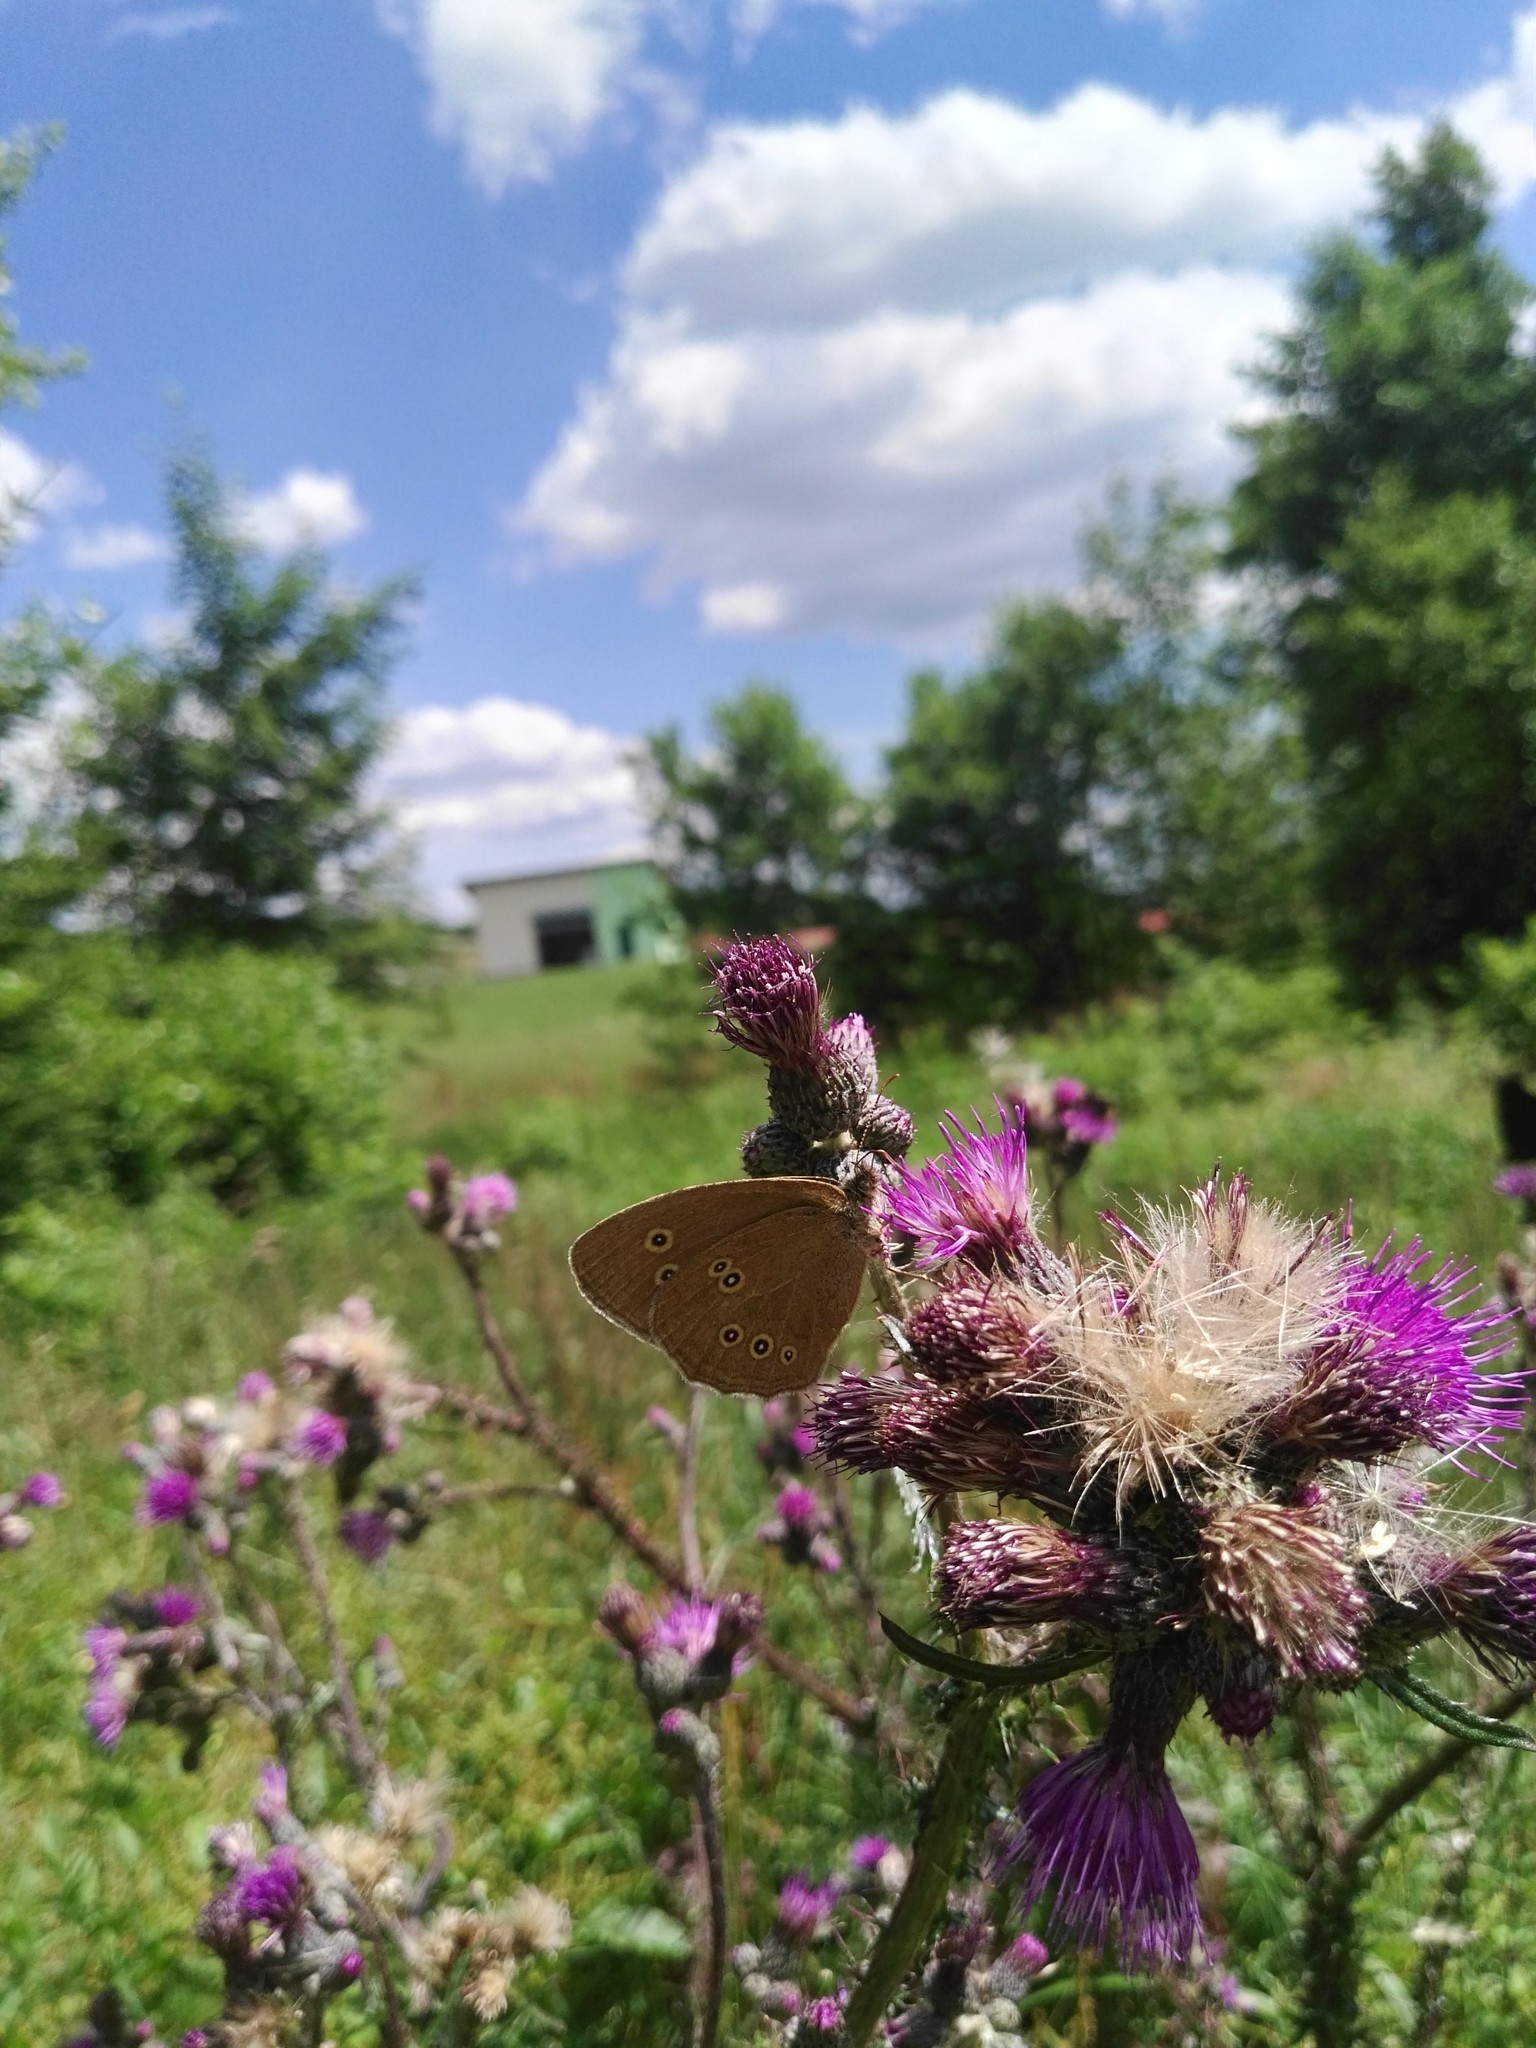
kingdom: Animalia
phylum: Arthropoda
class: Insecta
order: Lepidoptera
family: Nymphalidae
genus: Aphantopus
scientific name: Aphantopus hyperantus
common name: Ringlet
